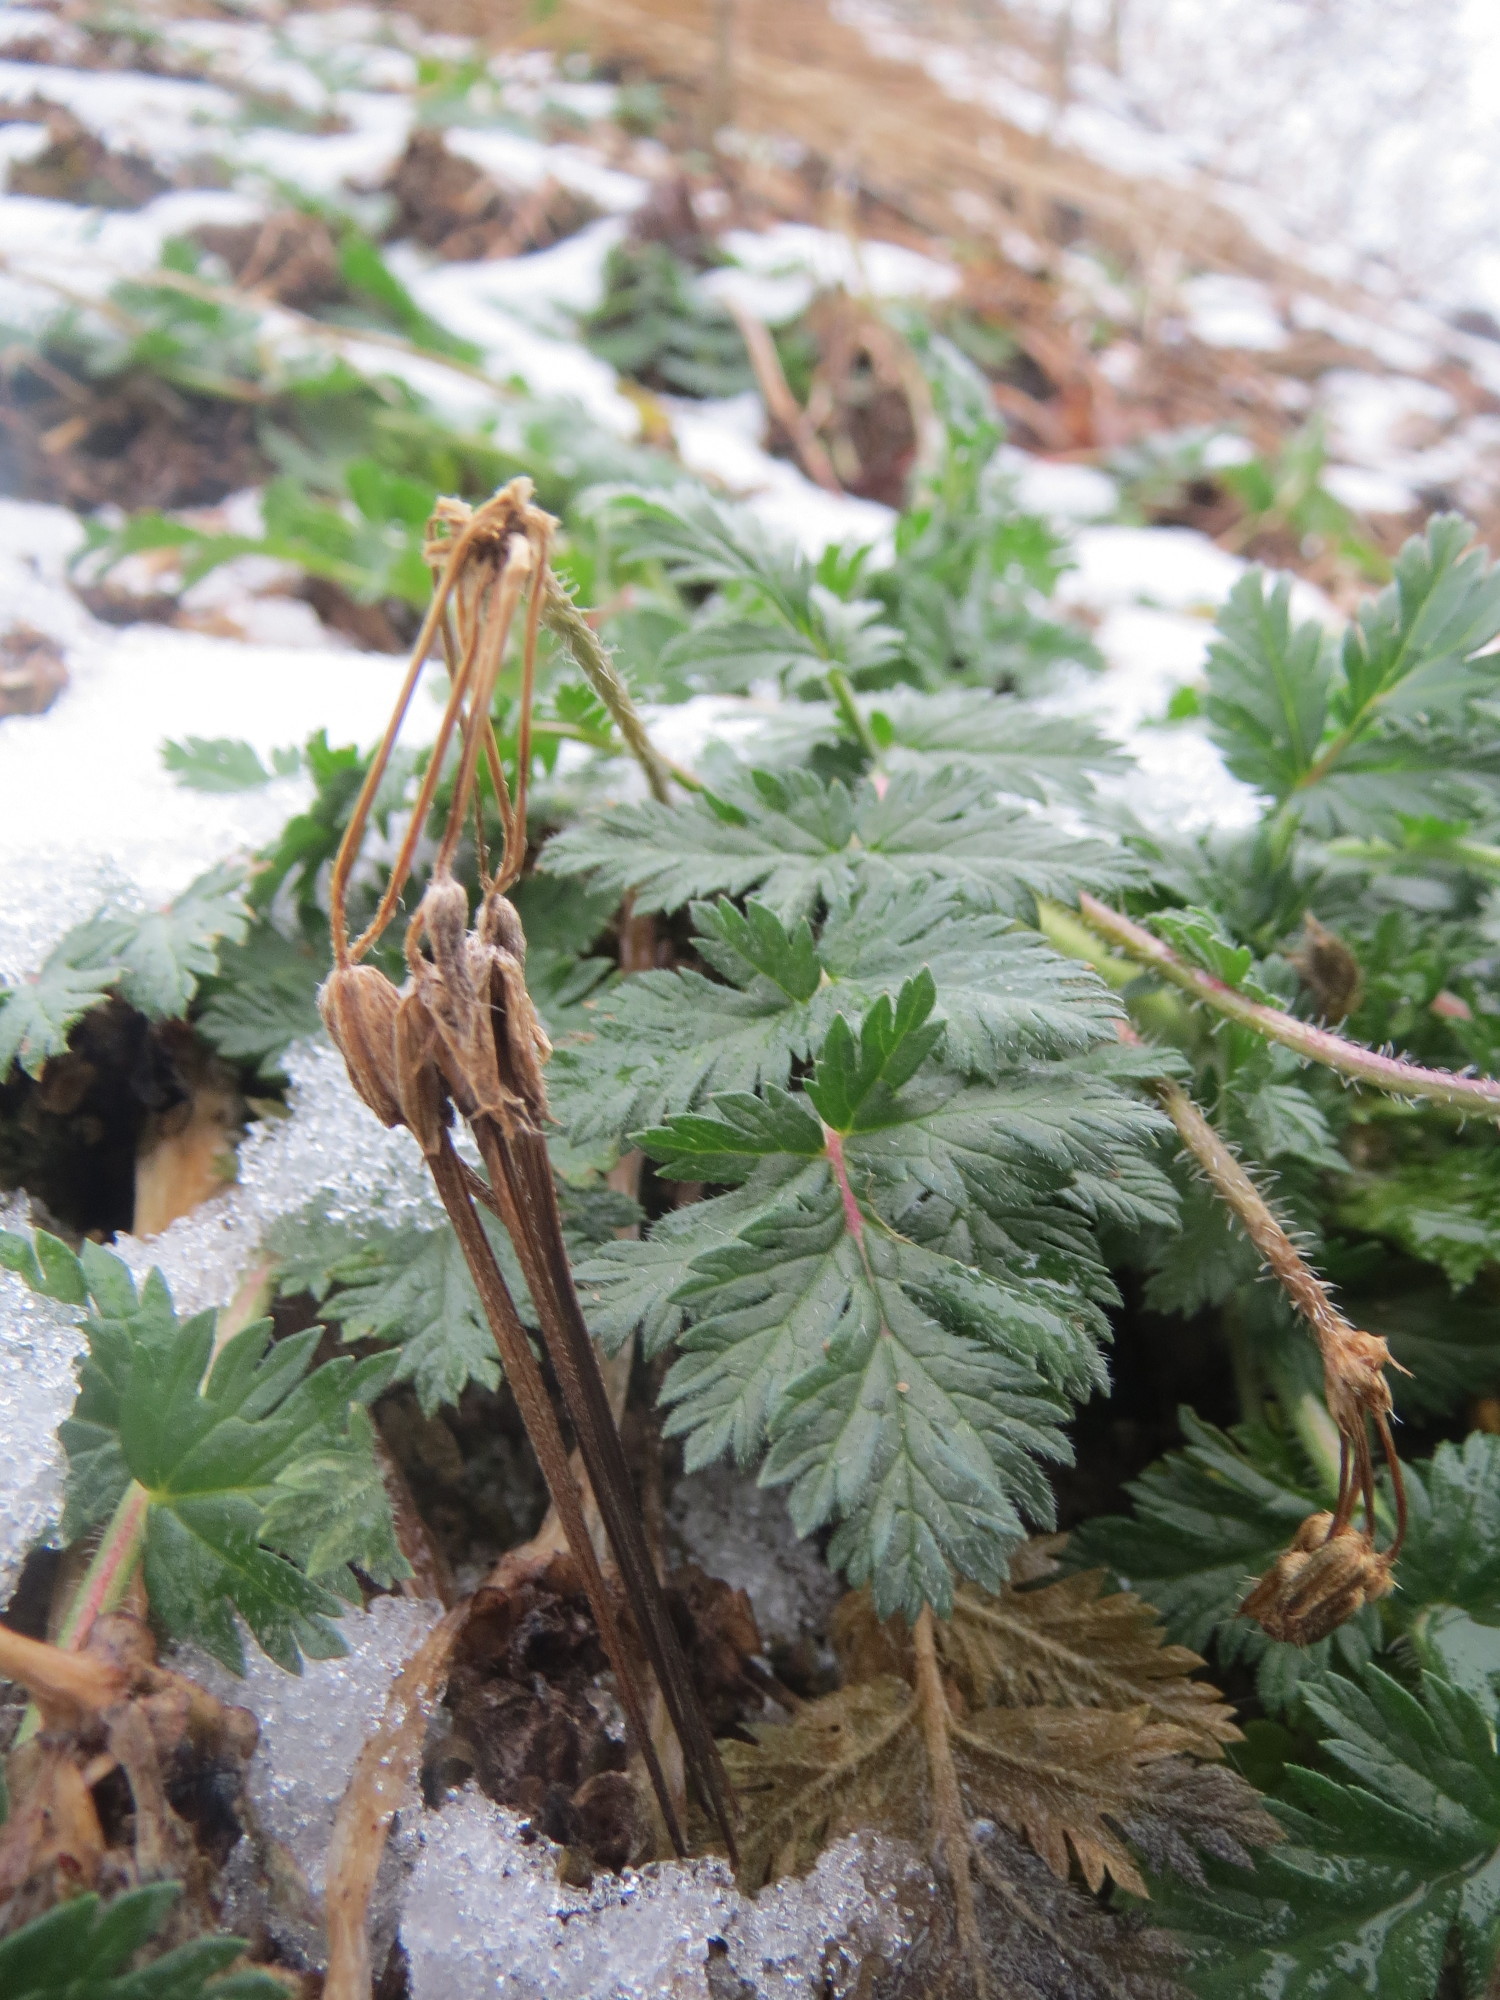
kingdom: Plantae
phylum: Tracheophyta
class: Magnoliopsida
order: Geraniales
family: Geraniaceae
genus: Erodium
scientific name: Erodium cicutarium
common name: Common stork's-bill
